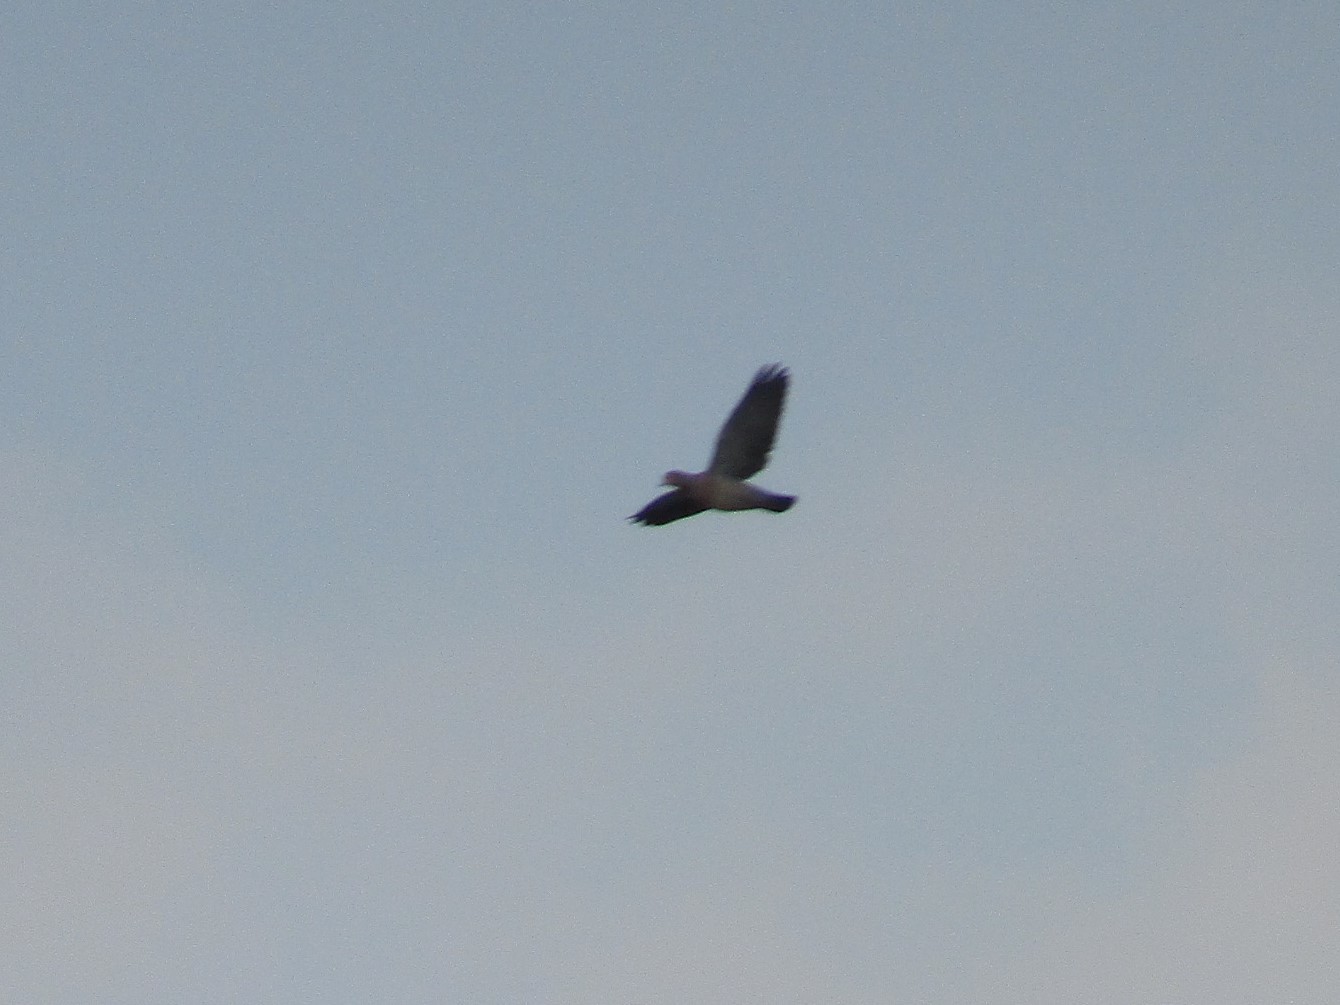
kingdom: Animalia
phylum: Chordata
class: Aves
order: Columbiformes
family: Columbidae
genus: Patagioenas
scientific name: Patagioenas picazuro
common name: Picazuro pigeon
